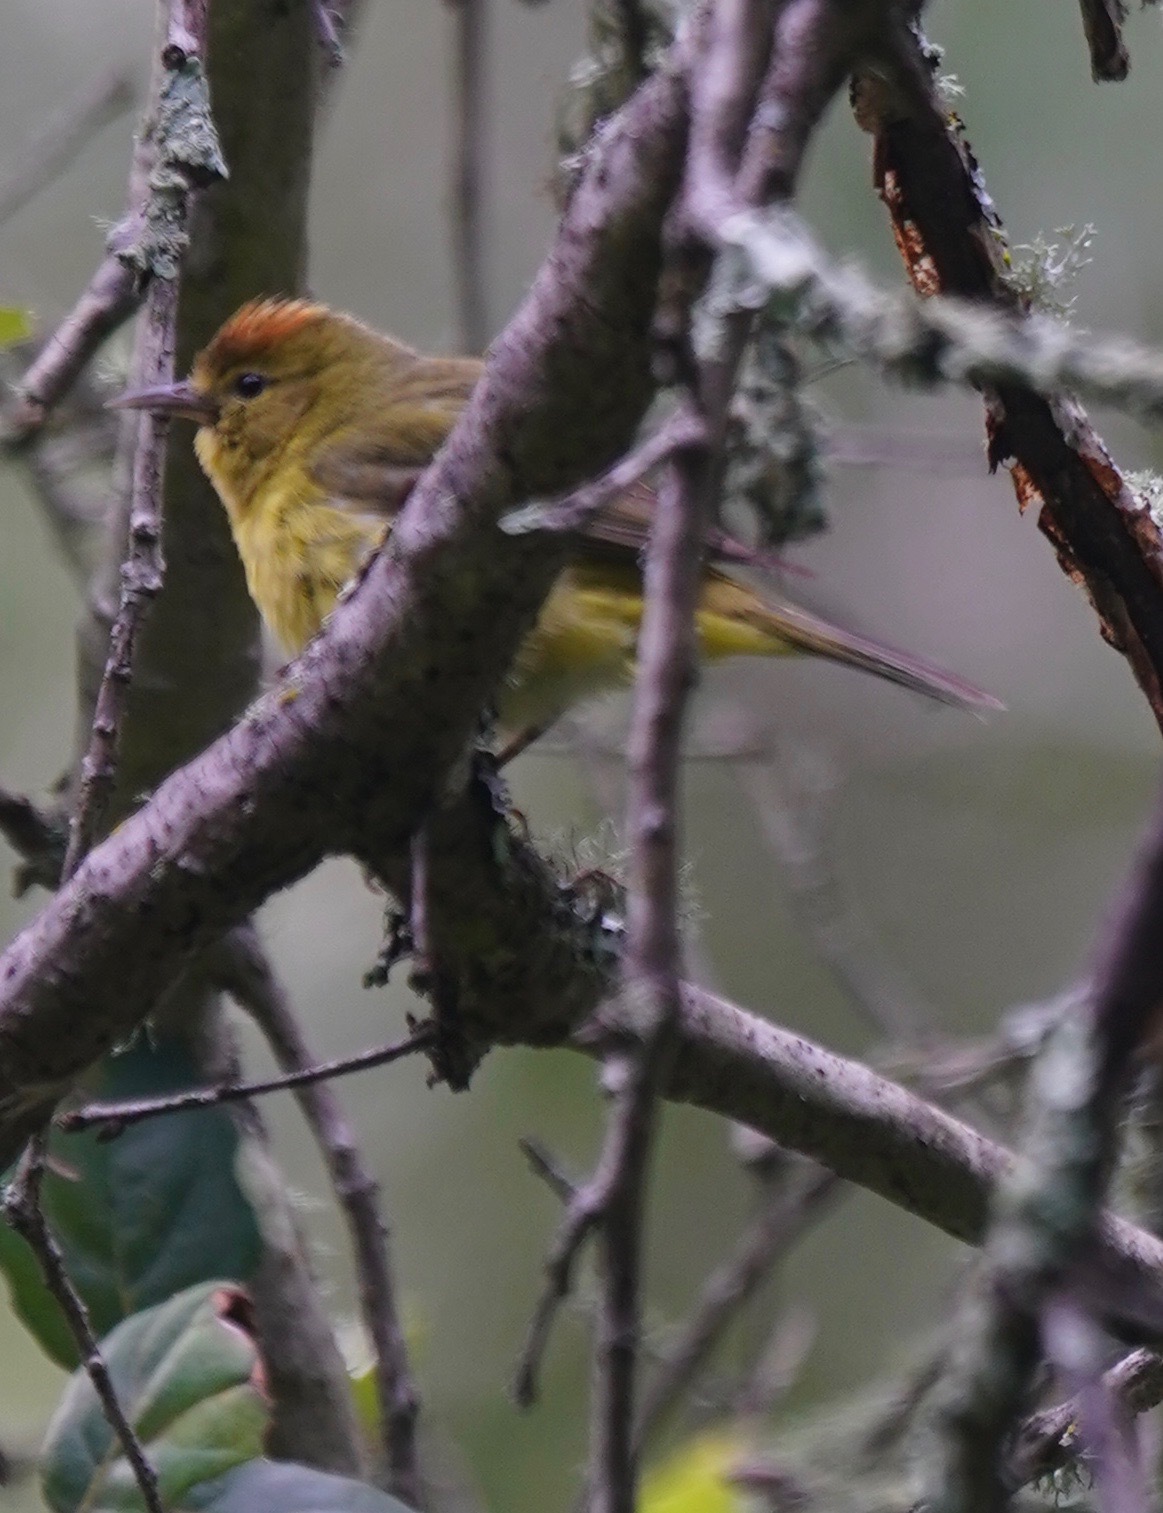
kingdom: Animalia
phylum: Chordata
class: Aves
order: Passeriformes
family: Parulidae
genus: Leiothlypis
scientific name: Leiothlypis celata
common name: Orange-crowned warbler
